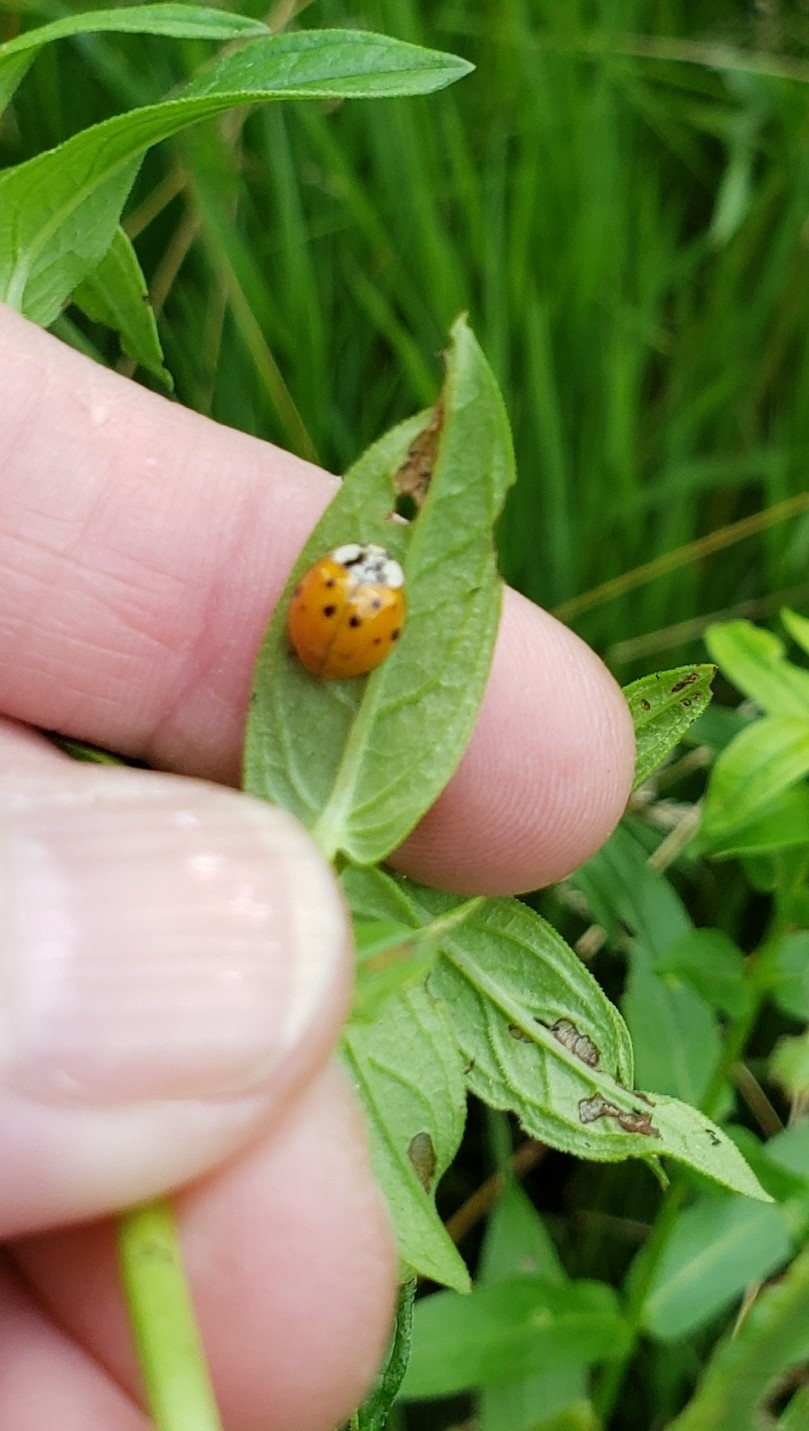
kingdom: Animalia
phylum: Arthropoda
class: Insecta
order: Coleoptera
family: Coccinellidae
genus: Harmonia
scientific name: Harmonia axyridis
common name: Harlequin ladybird
